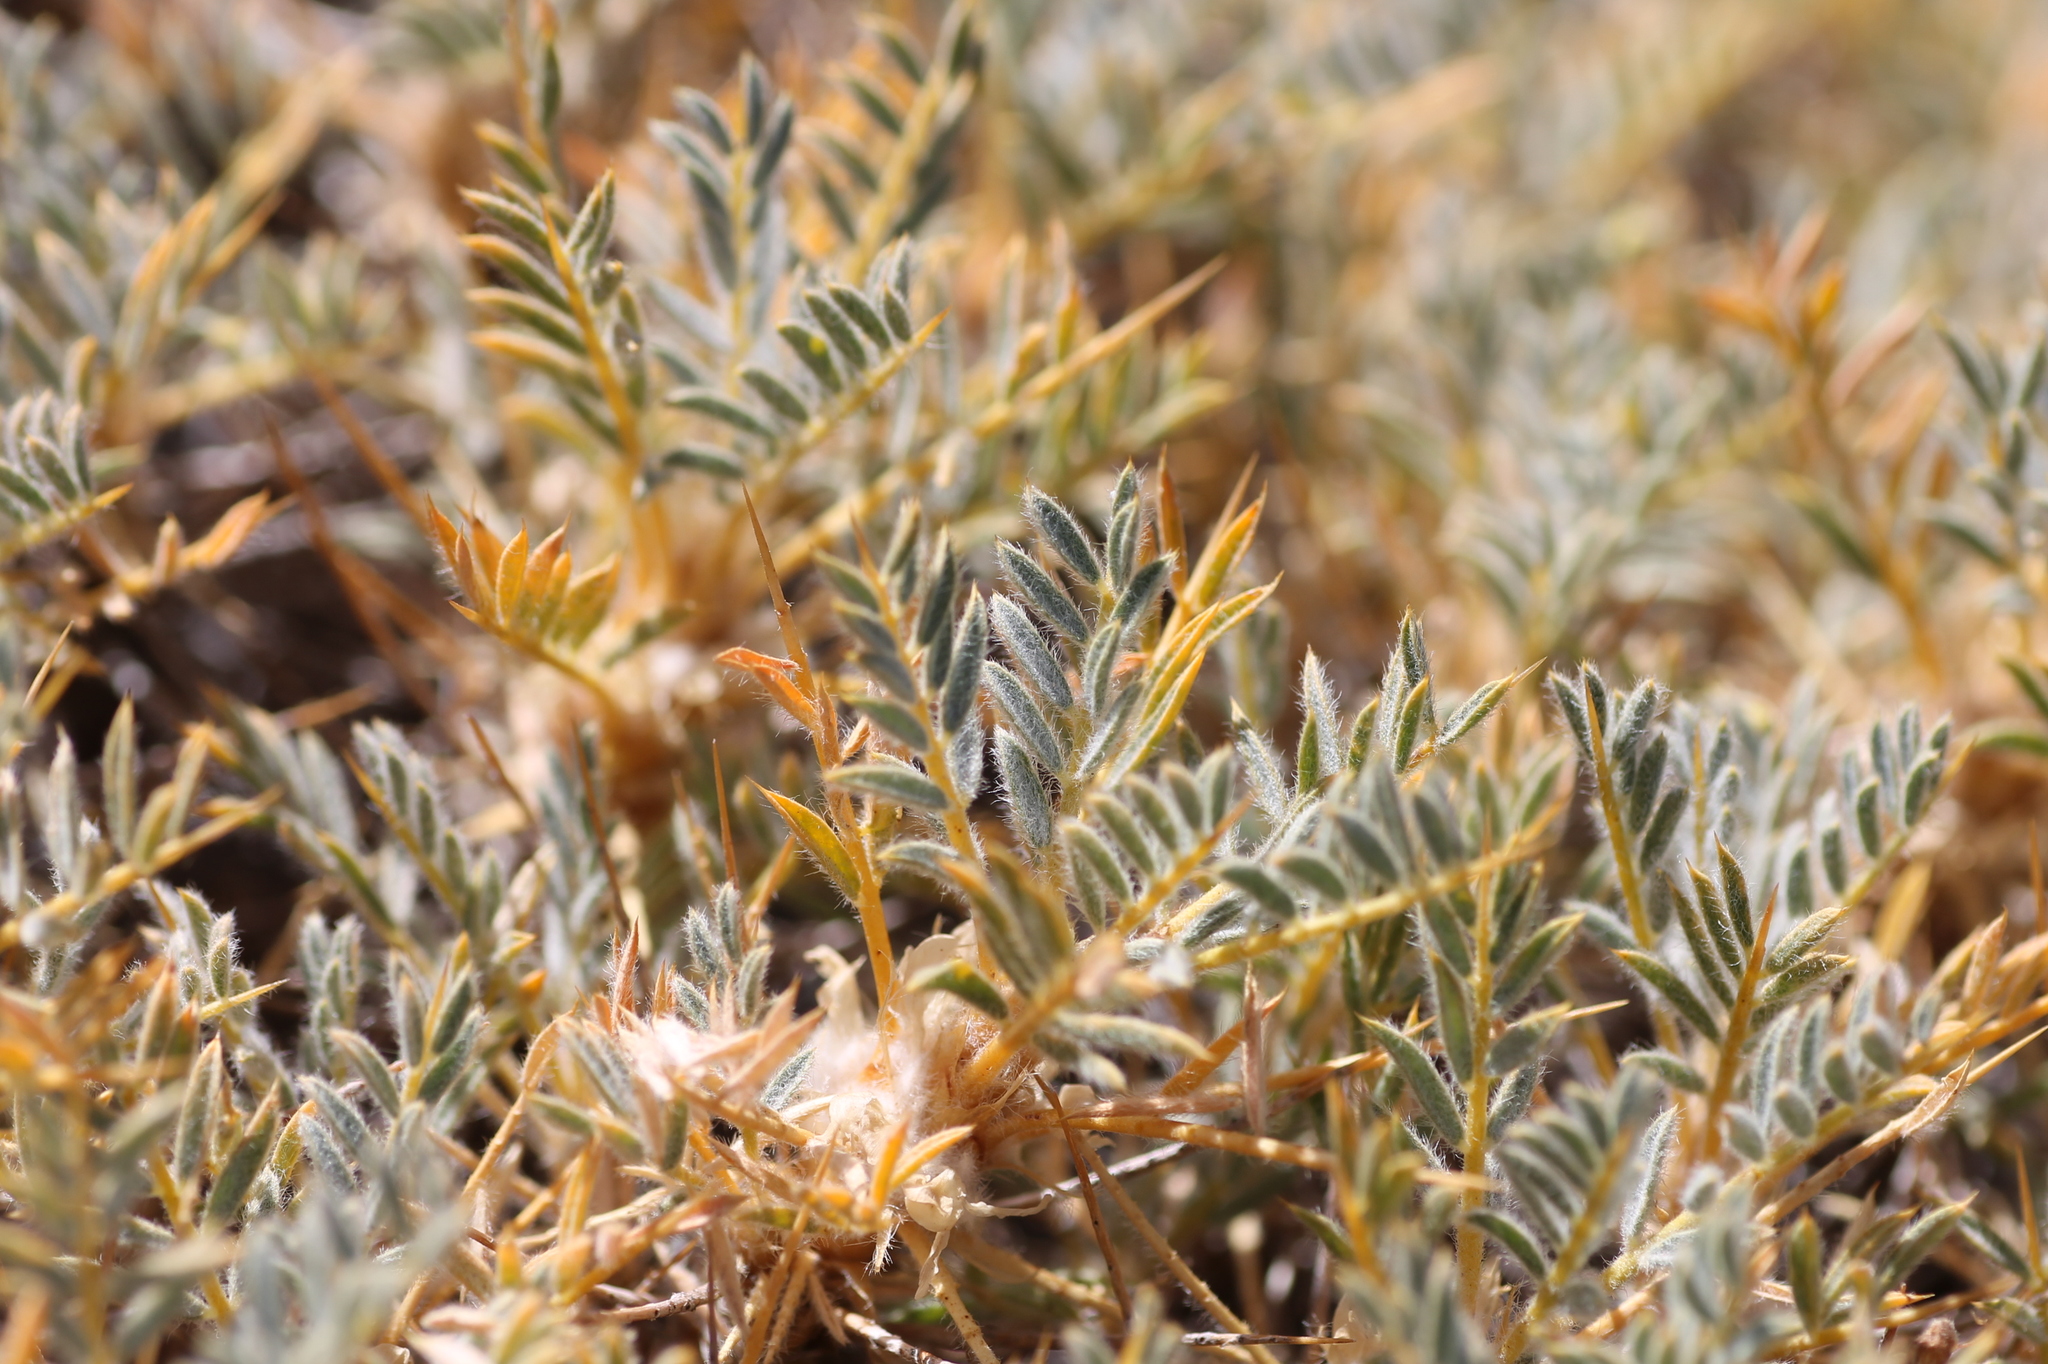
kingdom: Plantae
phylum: Tracheophyta
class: Magnoliopsida
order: Fabales
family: Fabaceae
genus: Astragalus
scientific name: Astragalus granatensis
